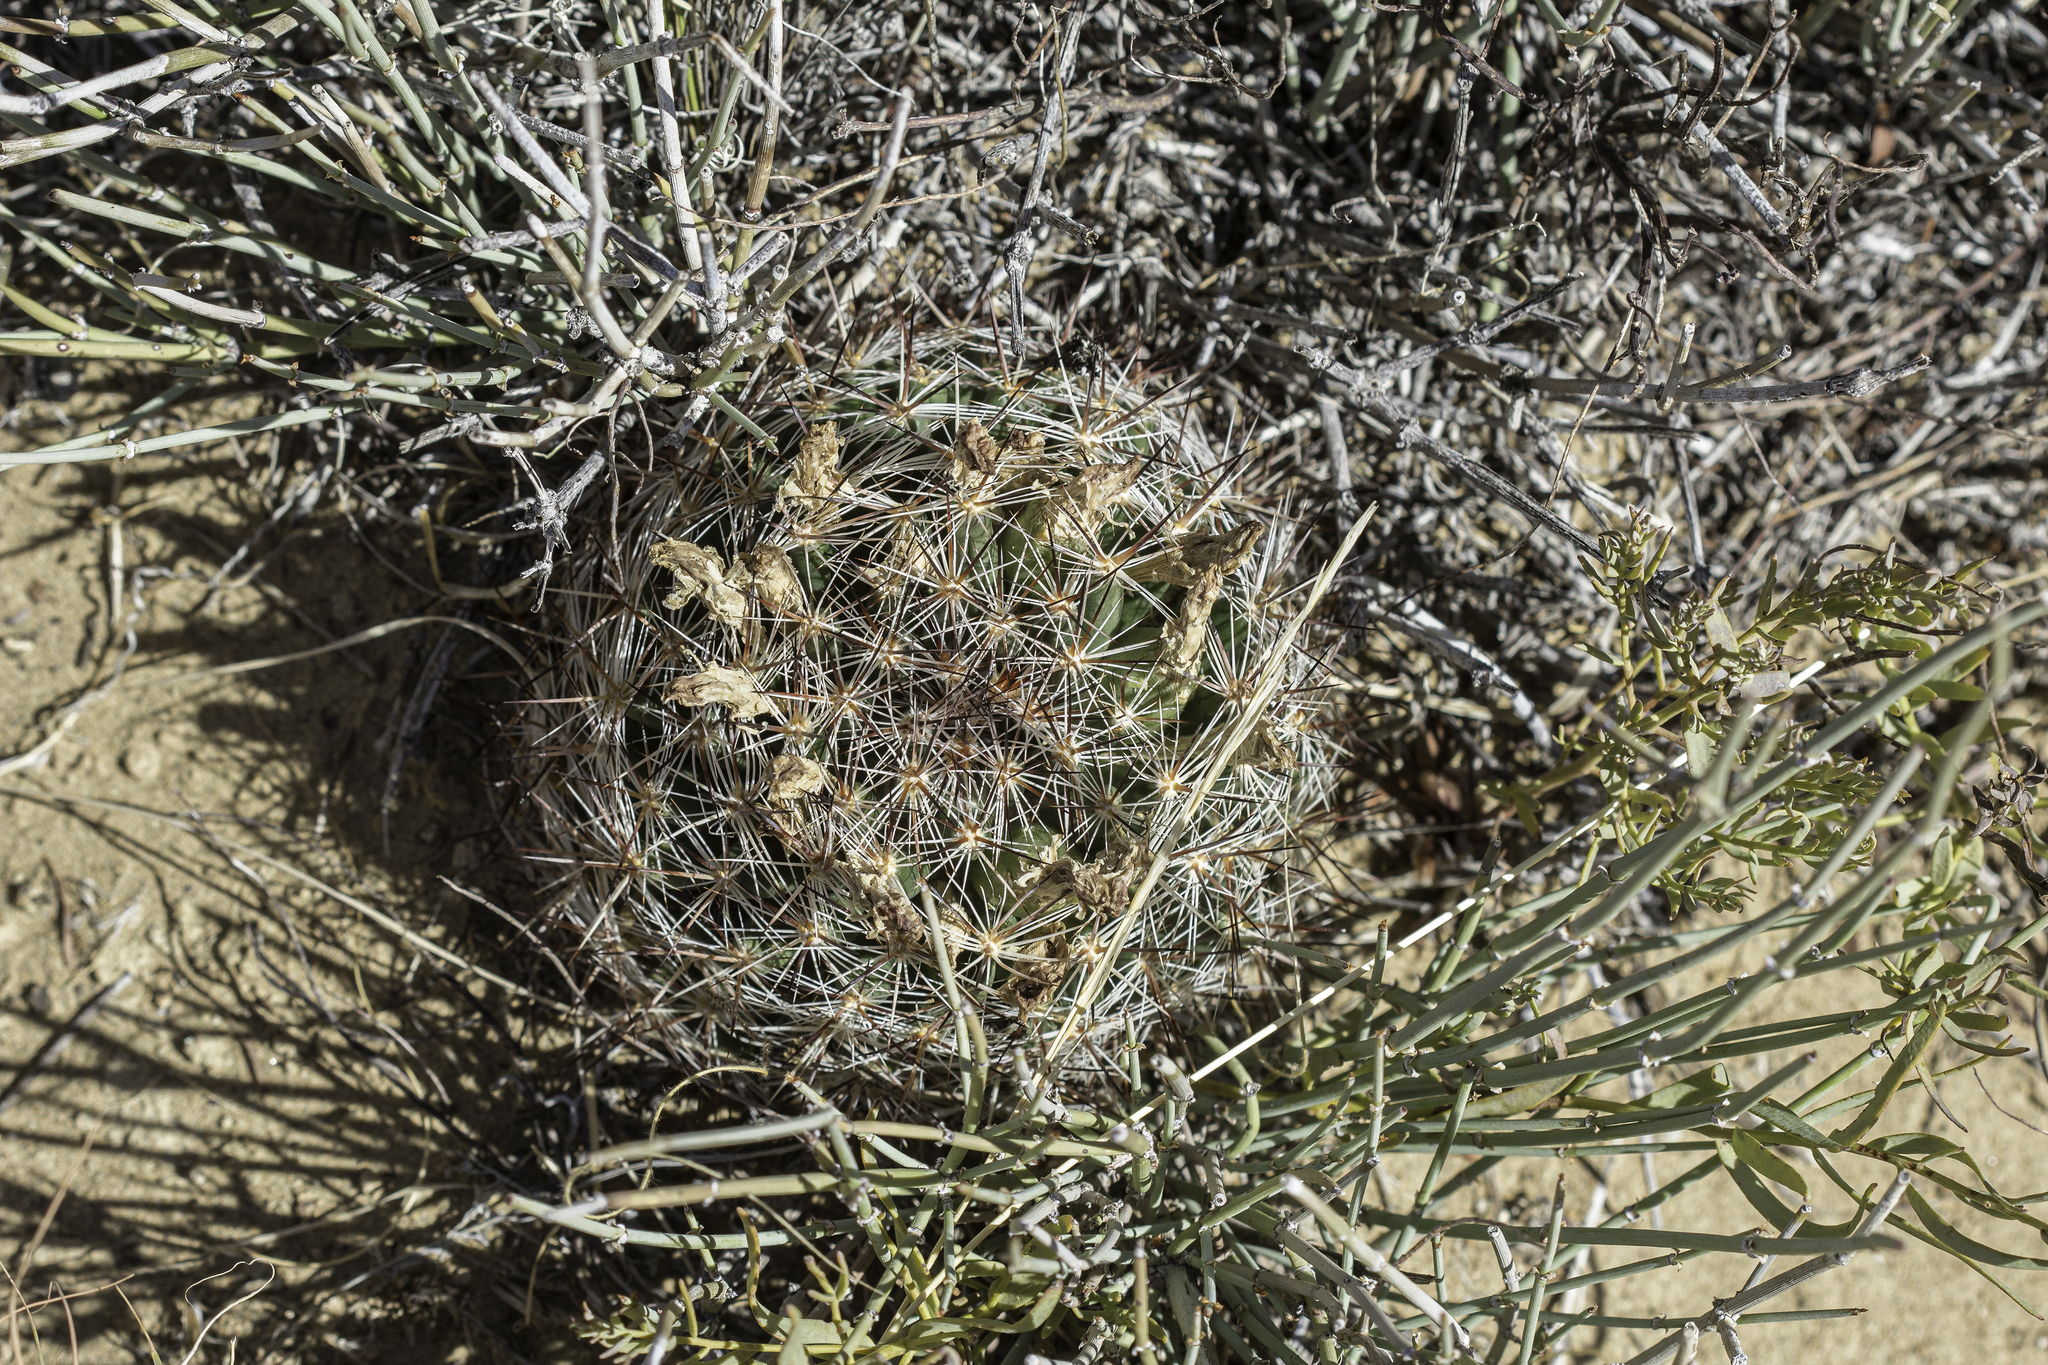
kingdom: Plantae
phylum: Tracheophyta
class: Magnoliopsida
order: Caryophyllales
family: Cactaceae
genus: Pelecyphora
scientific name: Pelecyphora vivipara
